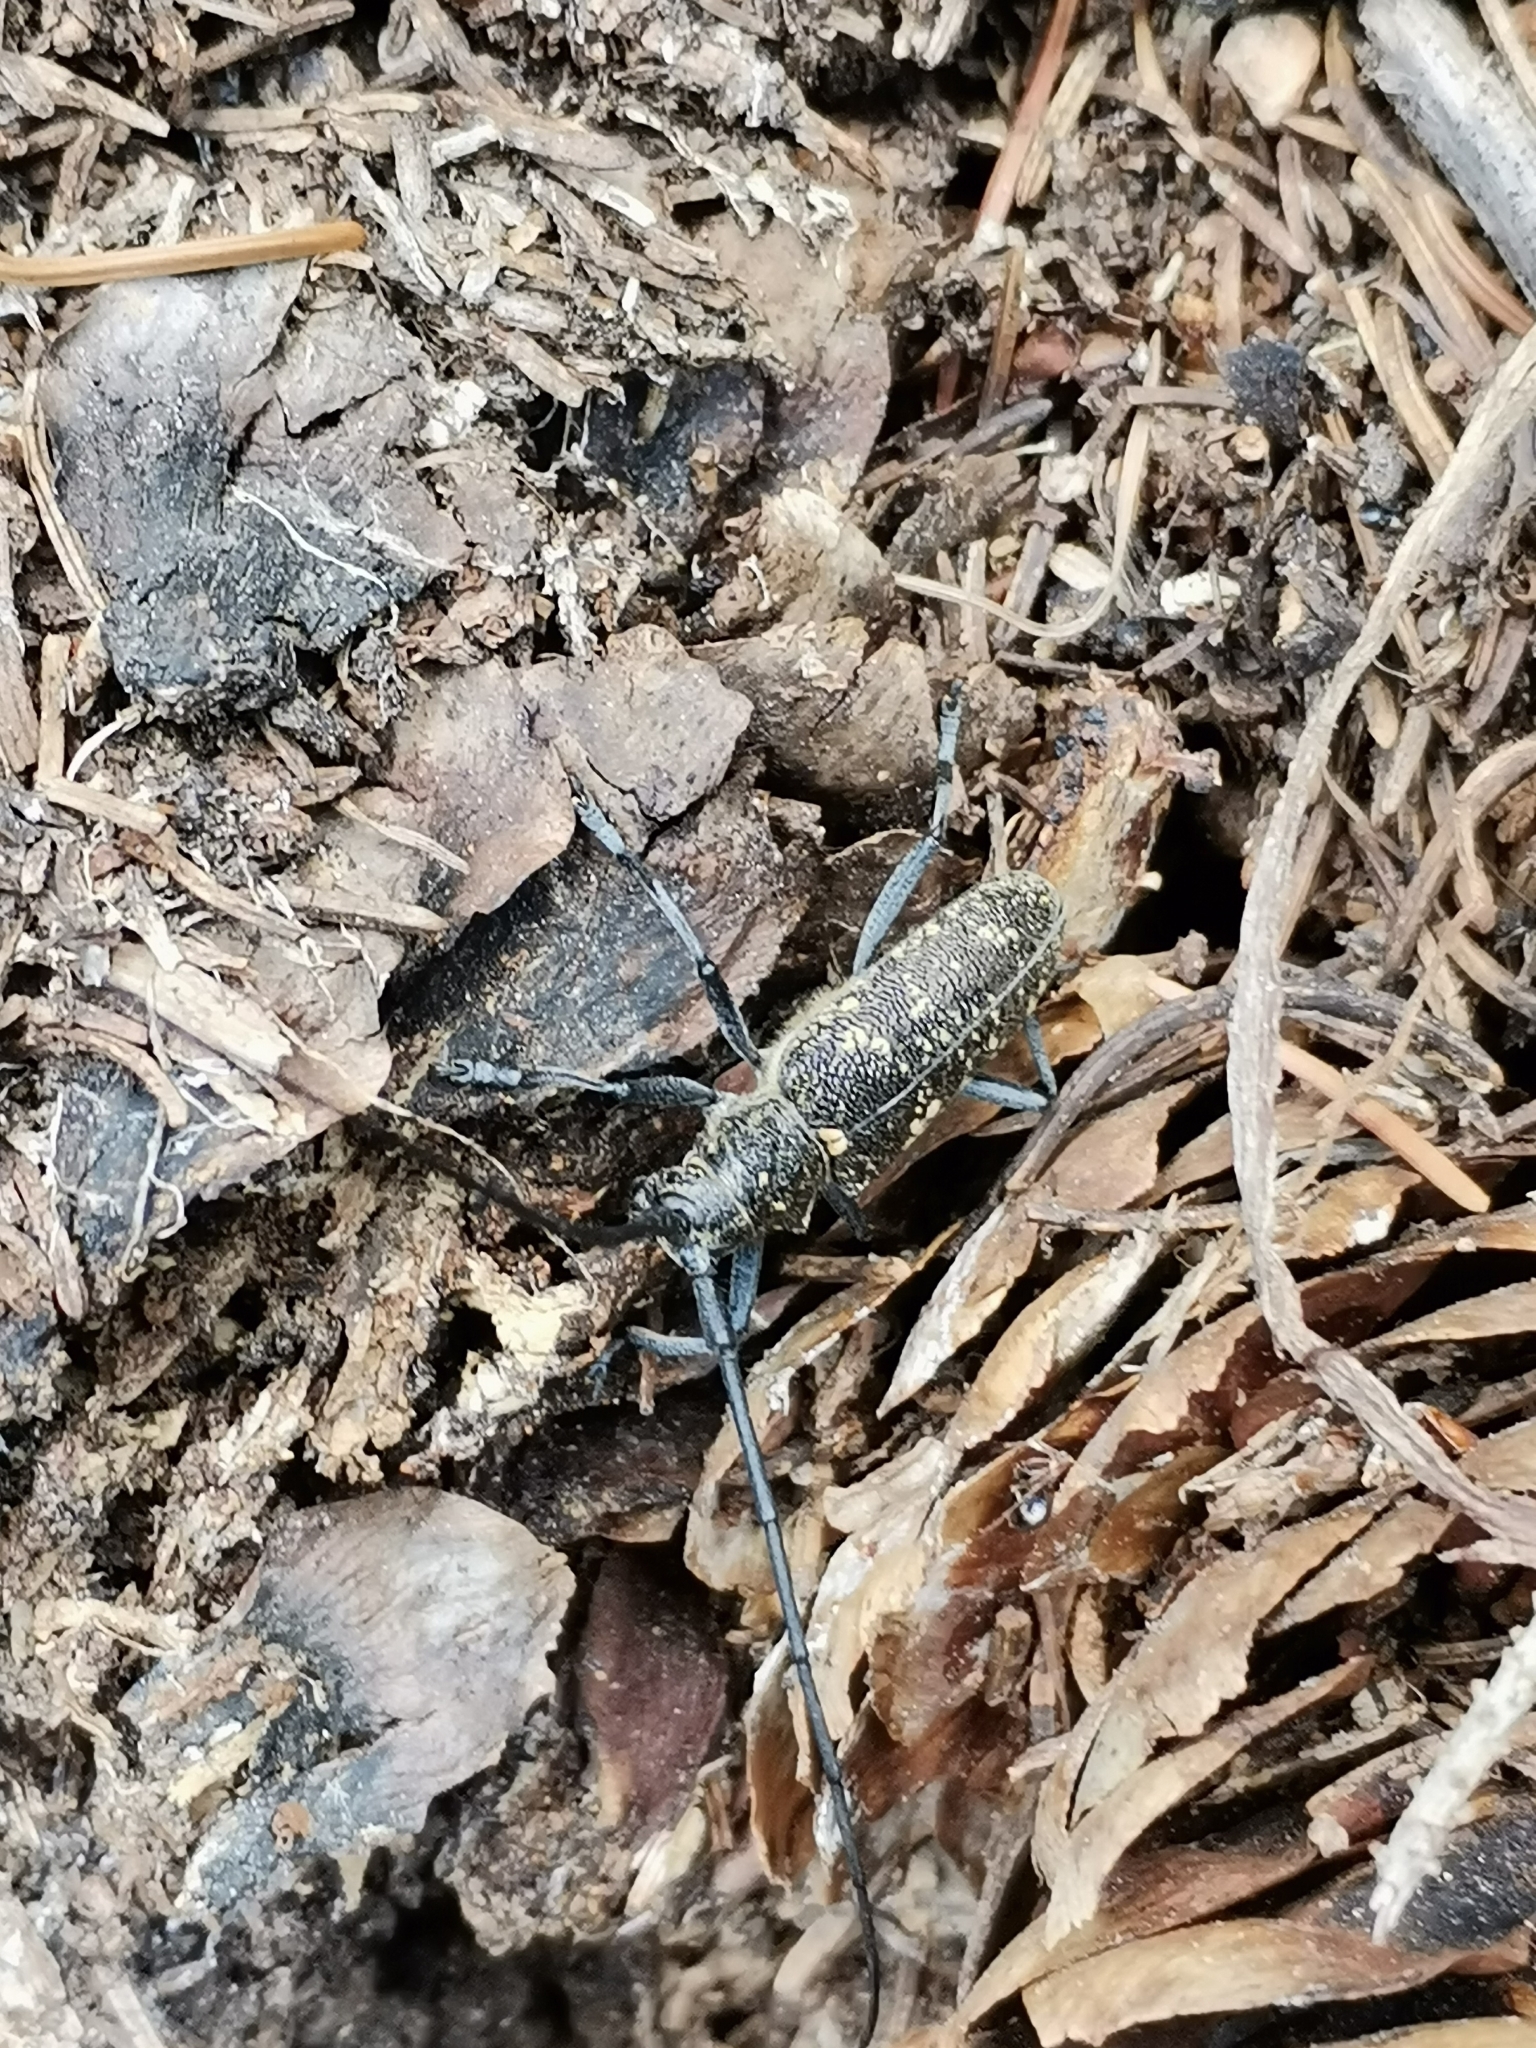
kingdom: Animalia
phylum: Arthropoda
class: Insecta
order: Coleoptera
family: Cerambycidae
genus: Monochamus
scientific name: Monochamus sutor
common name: Pine sawyer
